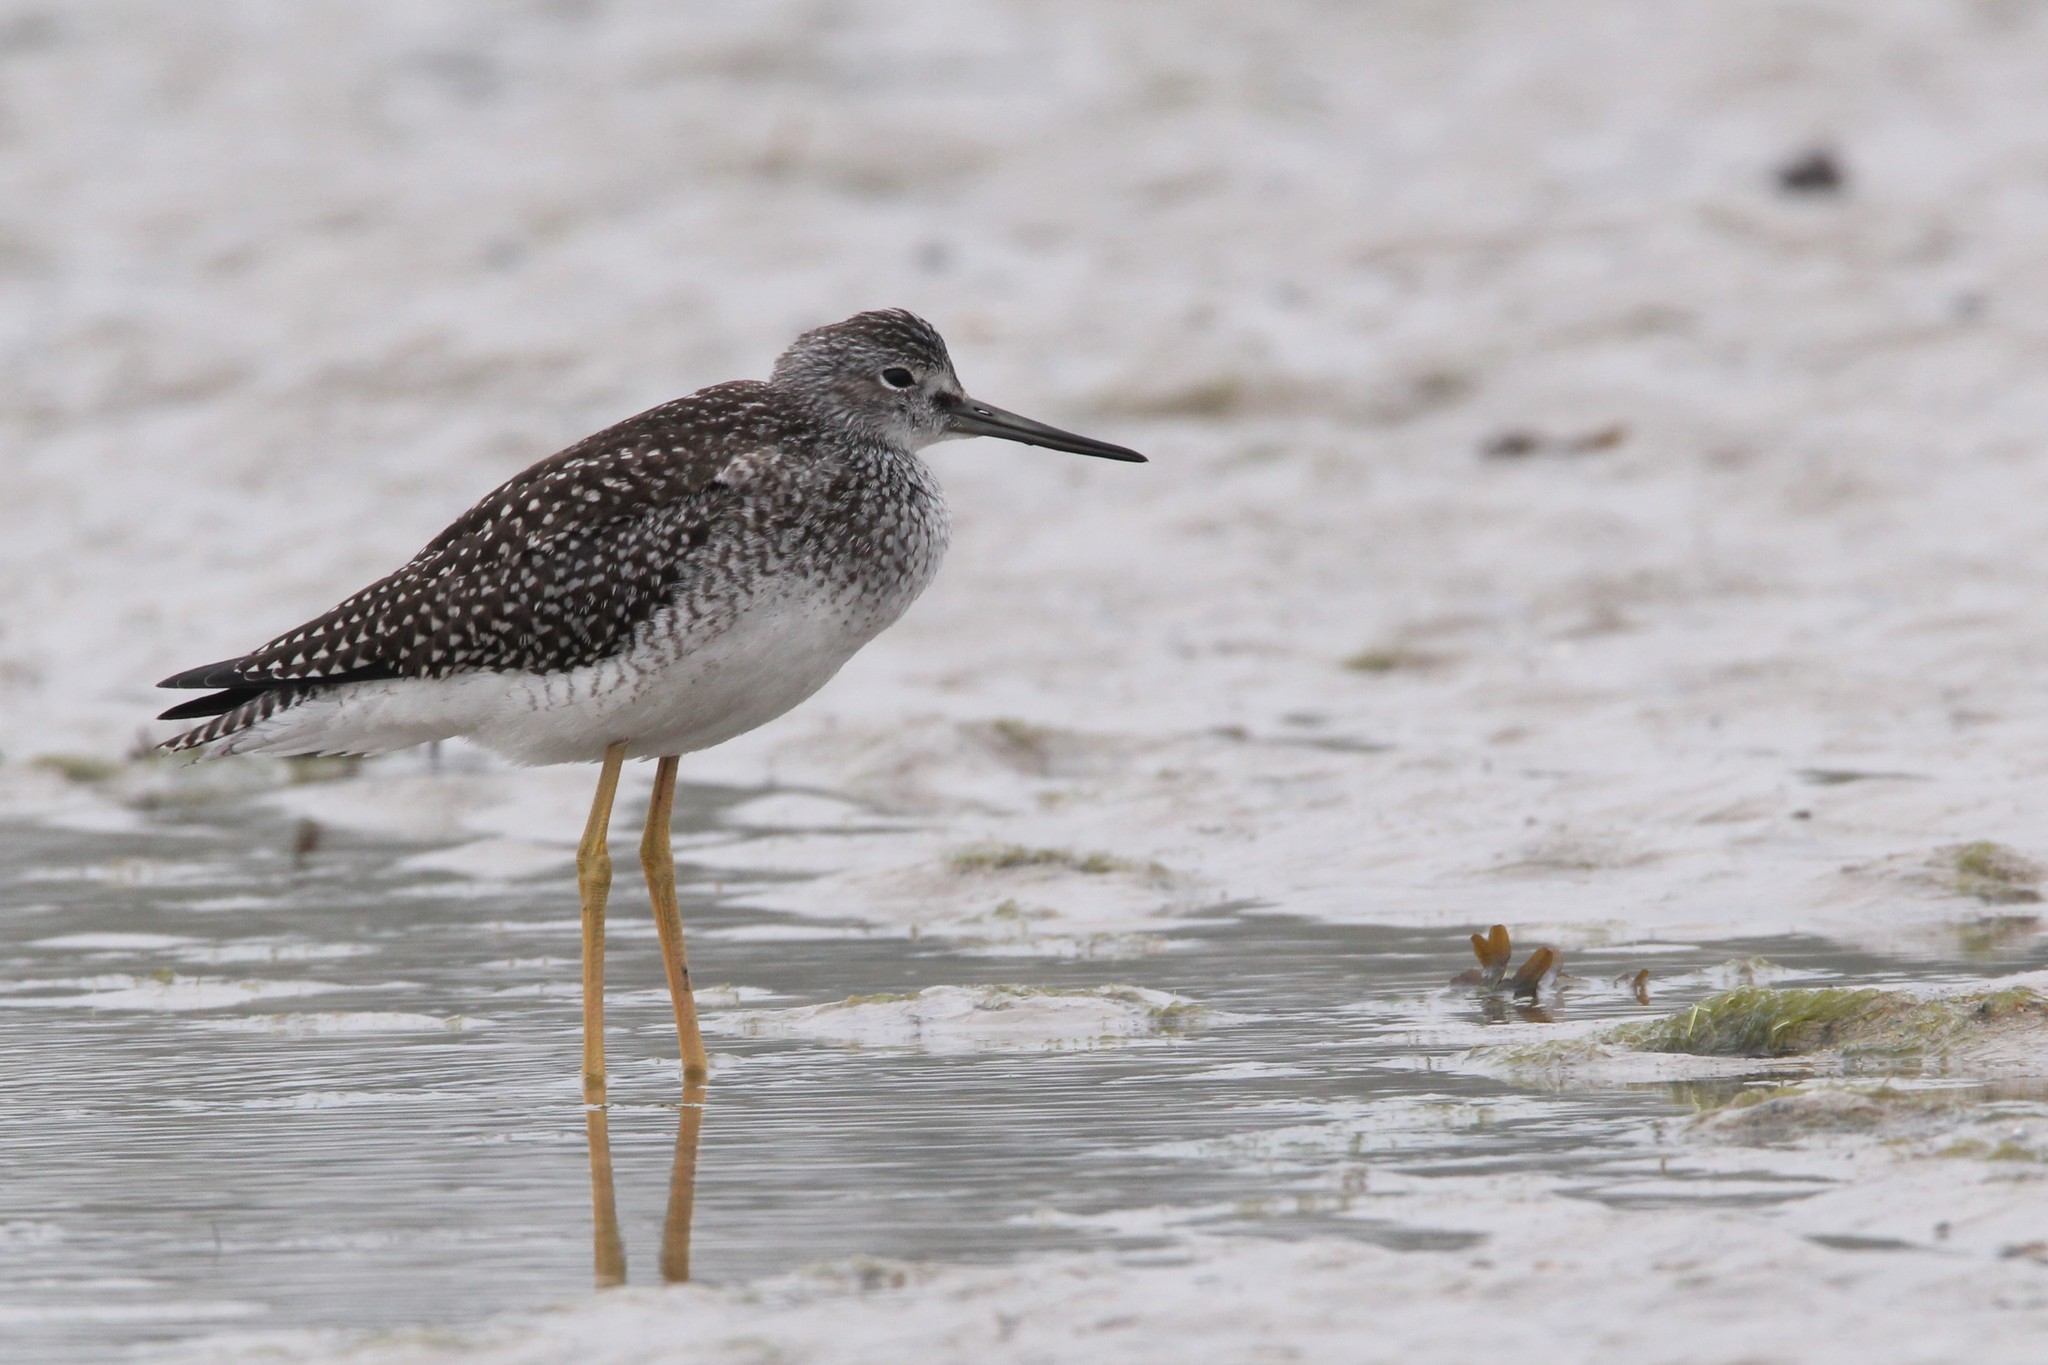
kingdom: Animalia
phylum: Chordata
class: Aves
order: Charadriiformes
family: Scolopacidae
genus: Tringa
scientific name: Tringa melanoleuca
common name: Greater yellowlegs
